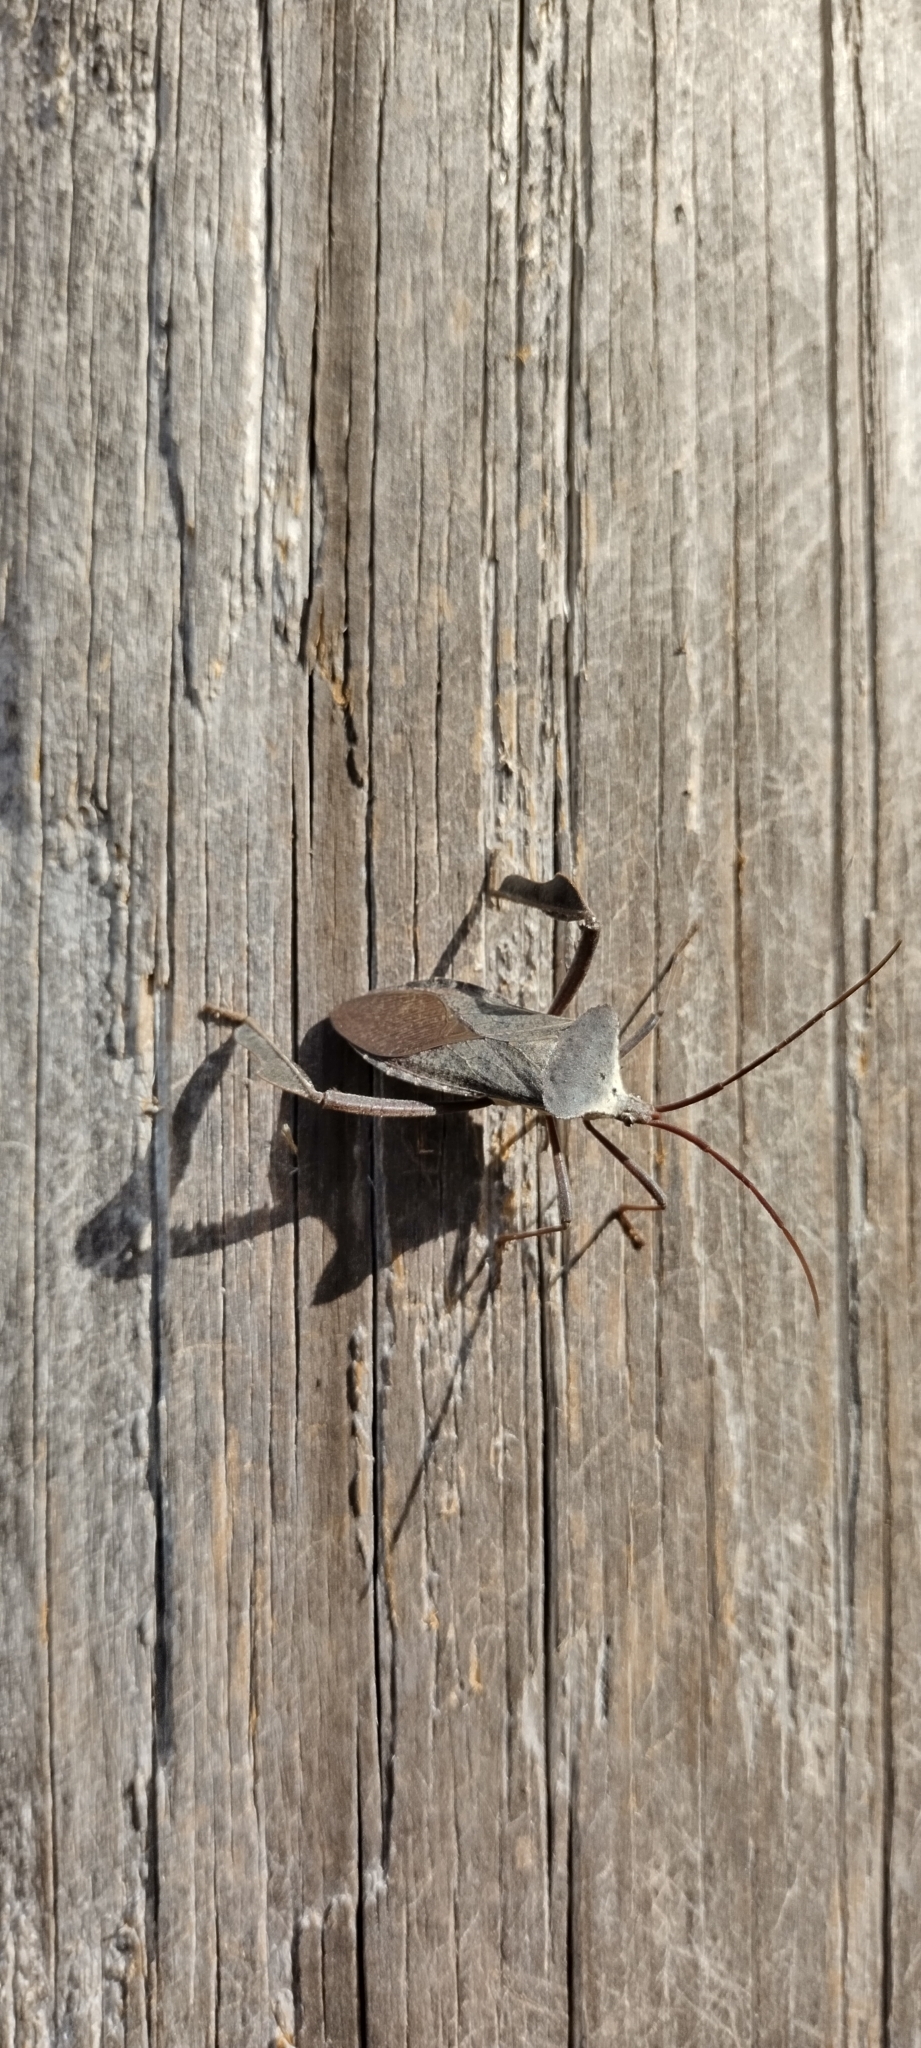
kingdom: Animalia
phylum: Arthropoda
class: Insecta
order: Hemiptera
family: Coreidae
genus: Acanthocephala
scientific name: Acanthocephala declivis
